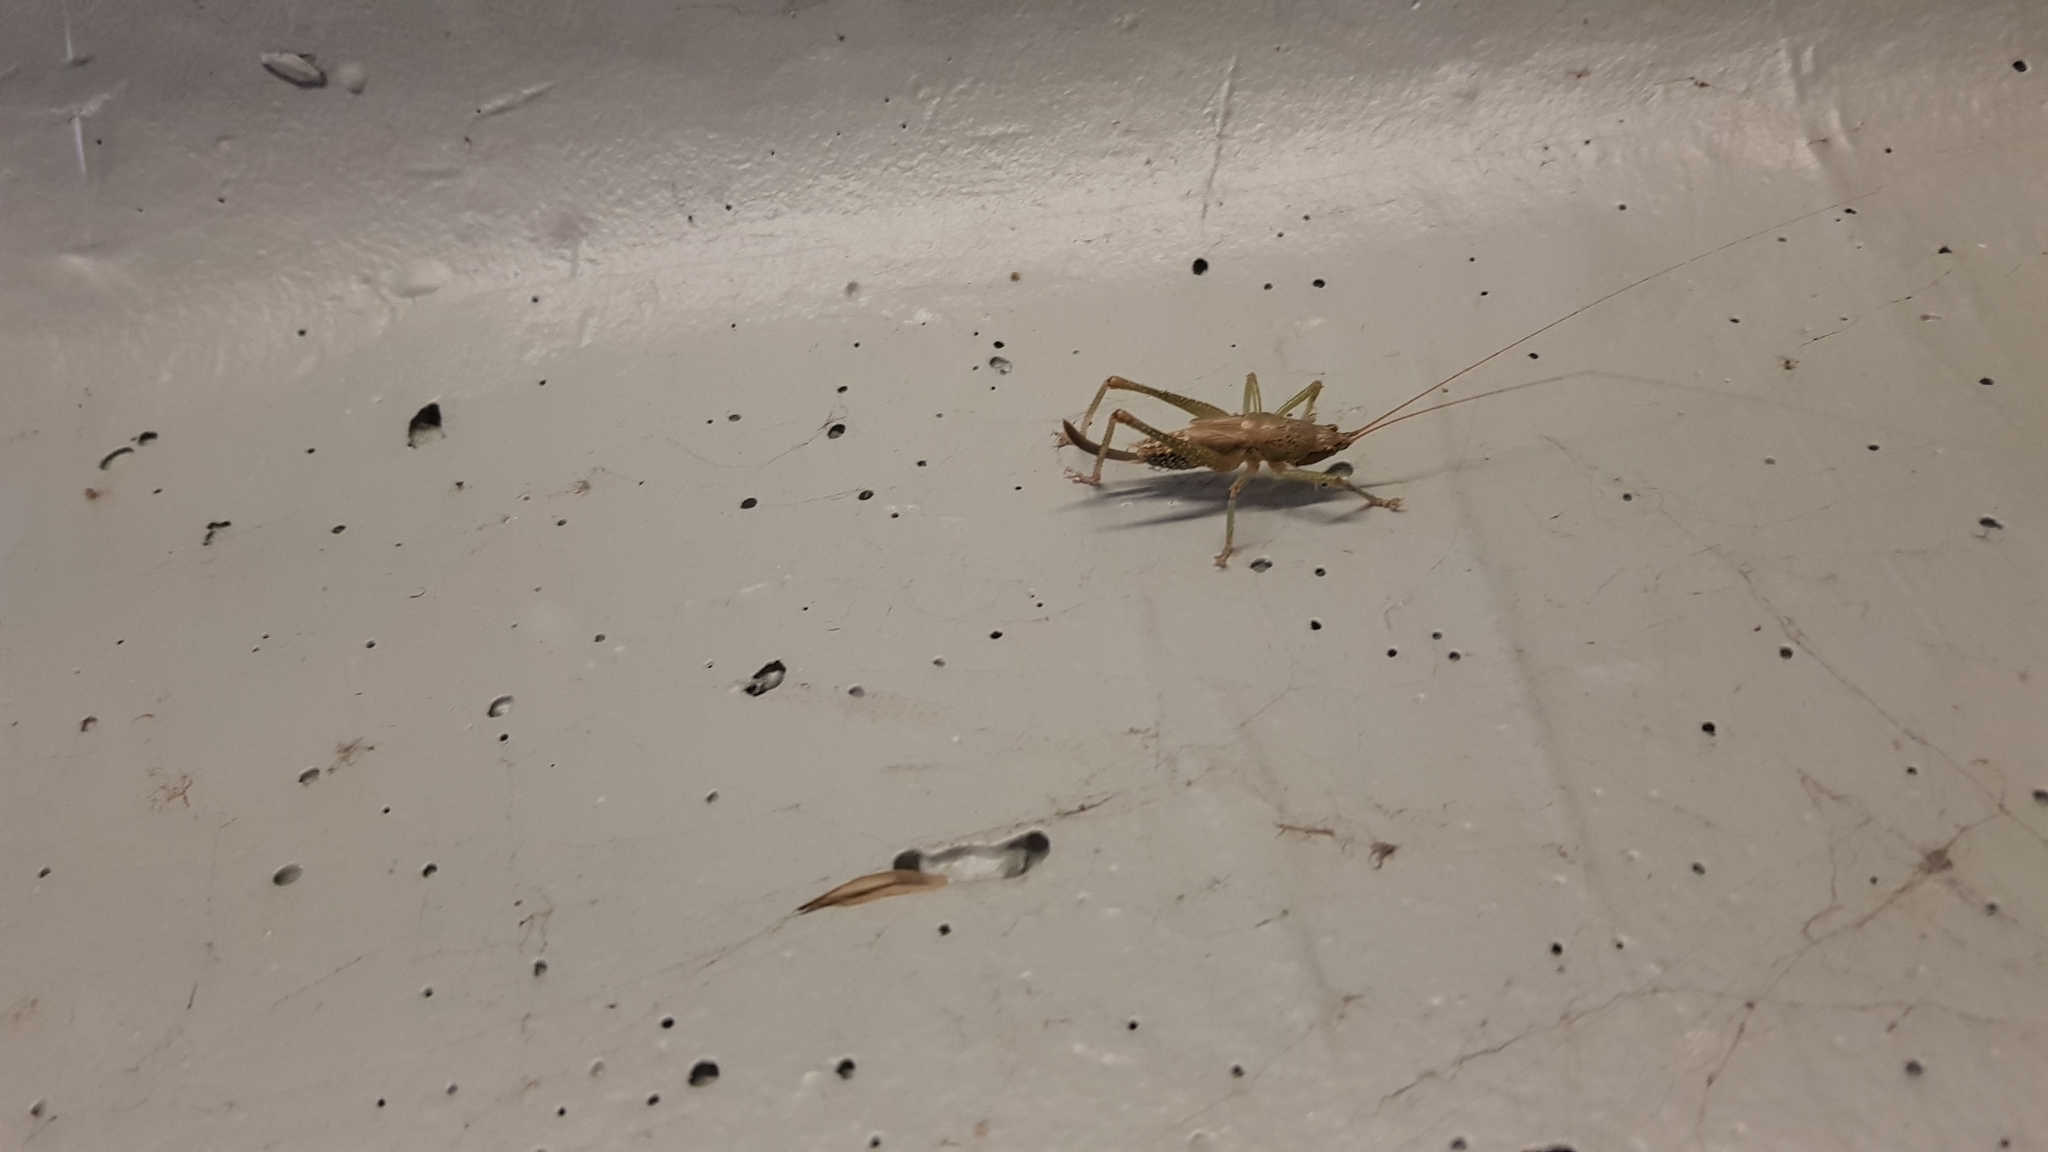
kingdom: Animalia
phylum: Arthropoda
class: Insecta
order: Orthoptera
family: Tettigoniidae
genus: Austrosalomona
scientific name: Austrosalomona falcata
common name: Olive-green coastal katydid
